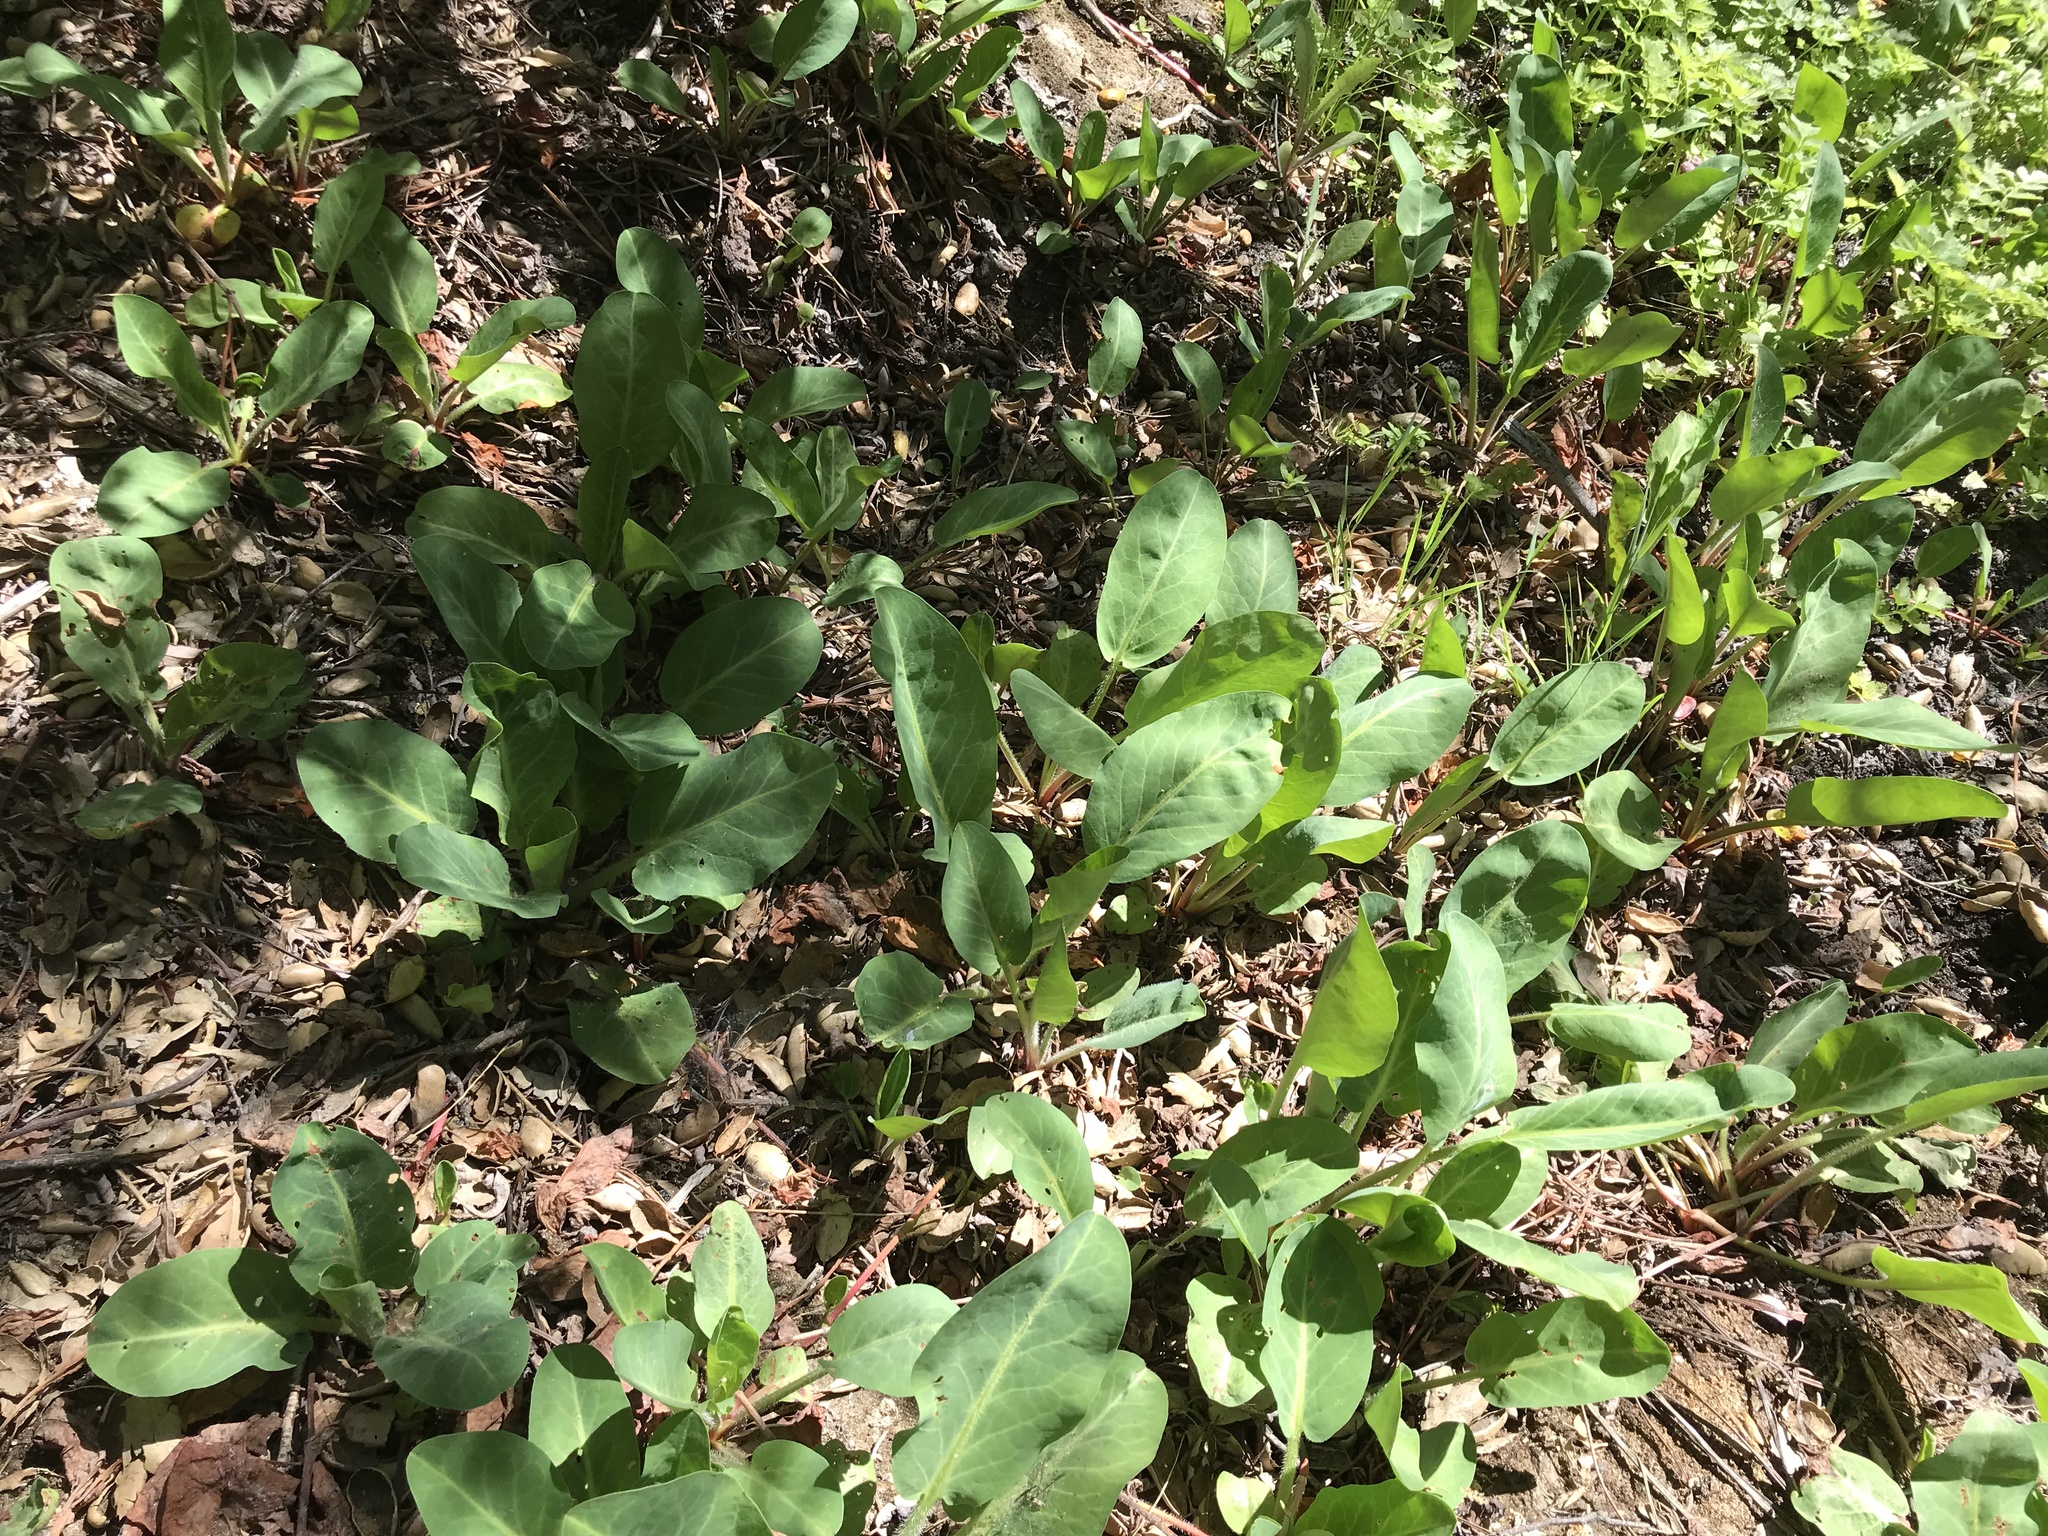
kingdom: Plantae
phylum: Tracheophyta
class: Magnoliopsida
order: Piperales
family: Saururaceae
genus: Anemopsis
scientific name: Anemopsis californica
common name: Apache-beads
